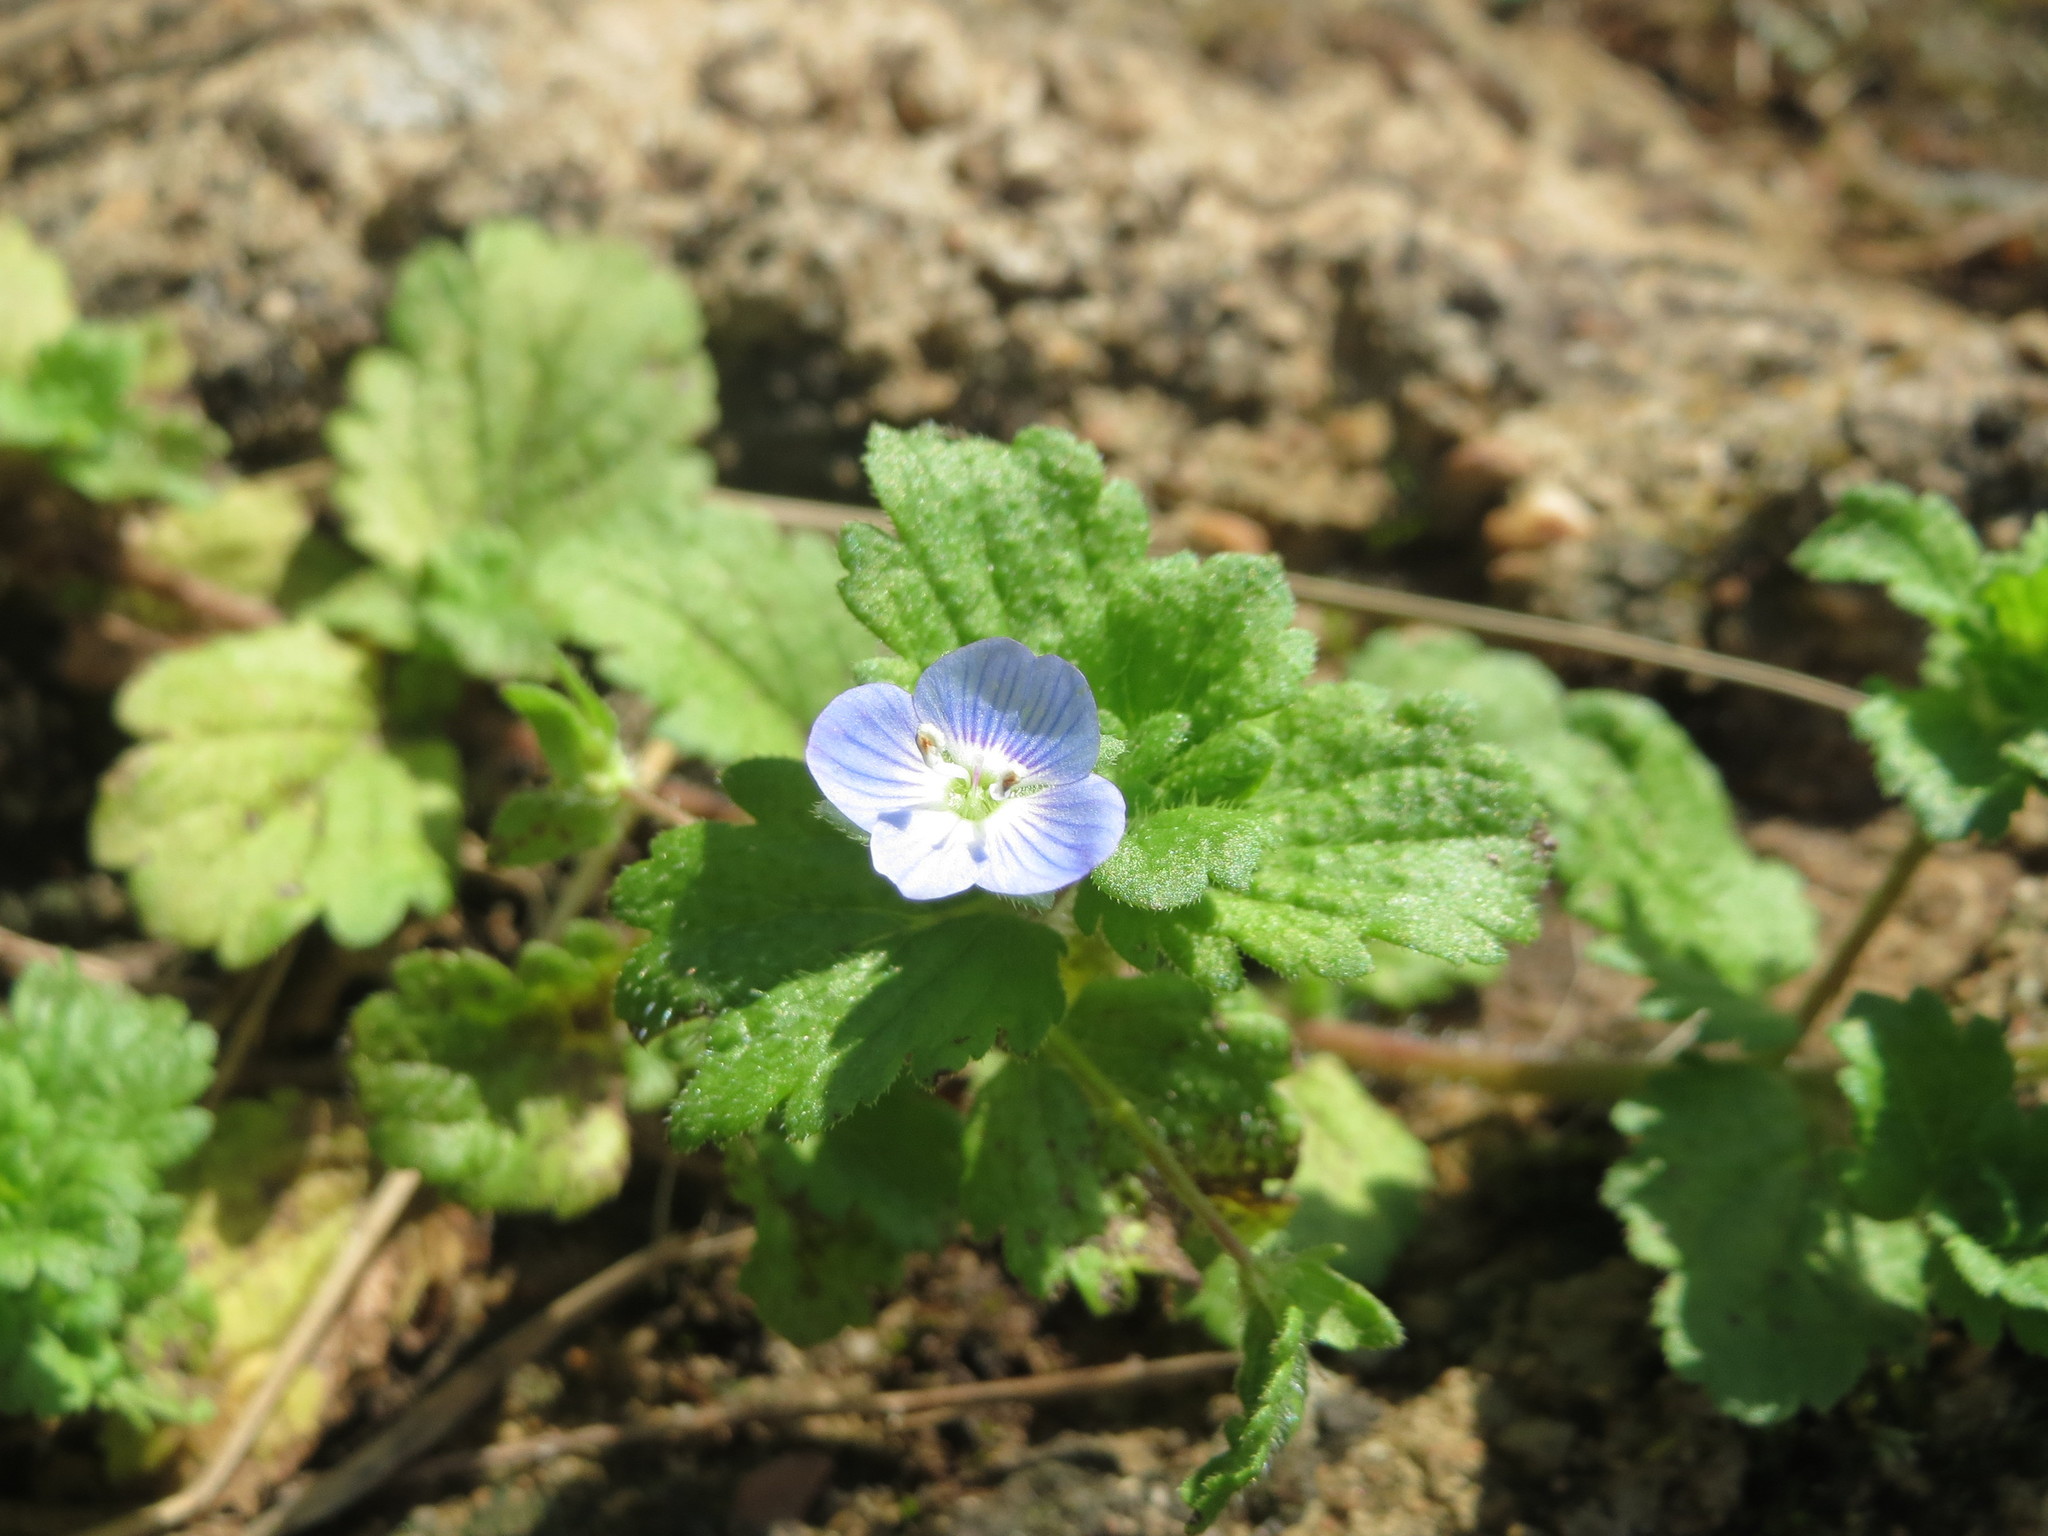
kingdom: Plantae
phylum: Tracheophyta
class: Magnoliopsida
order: Lamiales
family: Plantaginaceae
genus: Veronica
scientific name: Veronica persica
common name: Common field-speedwell
